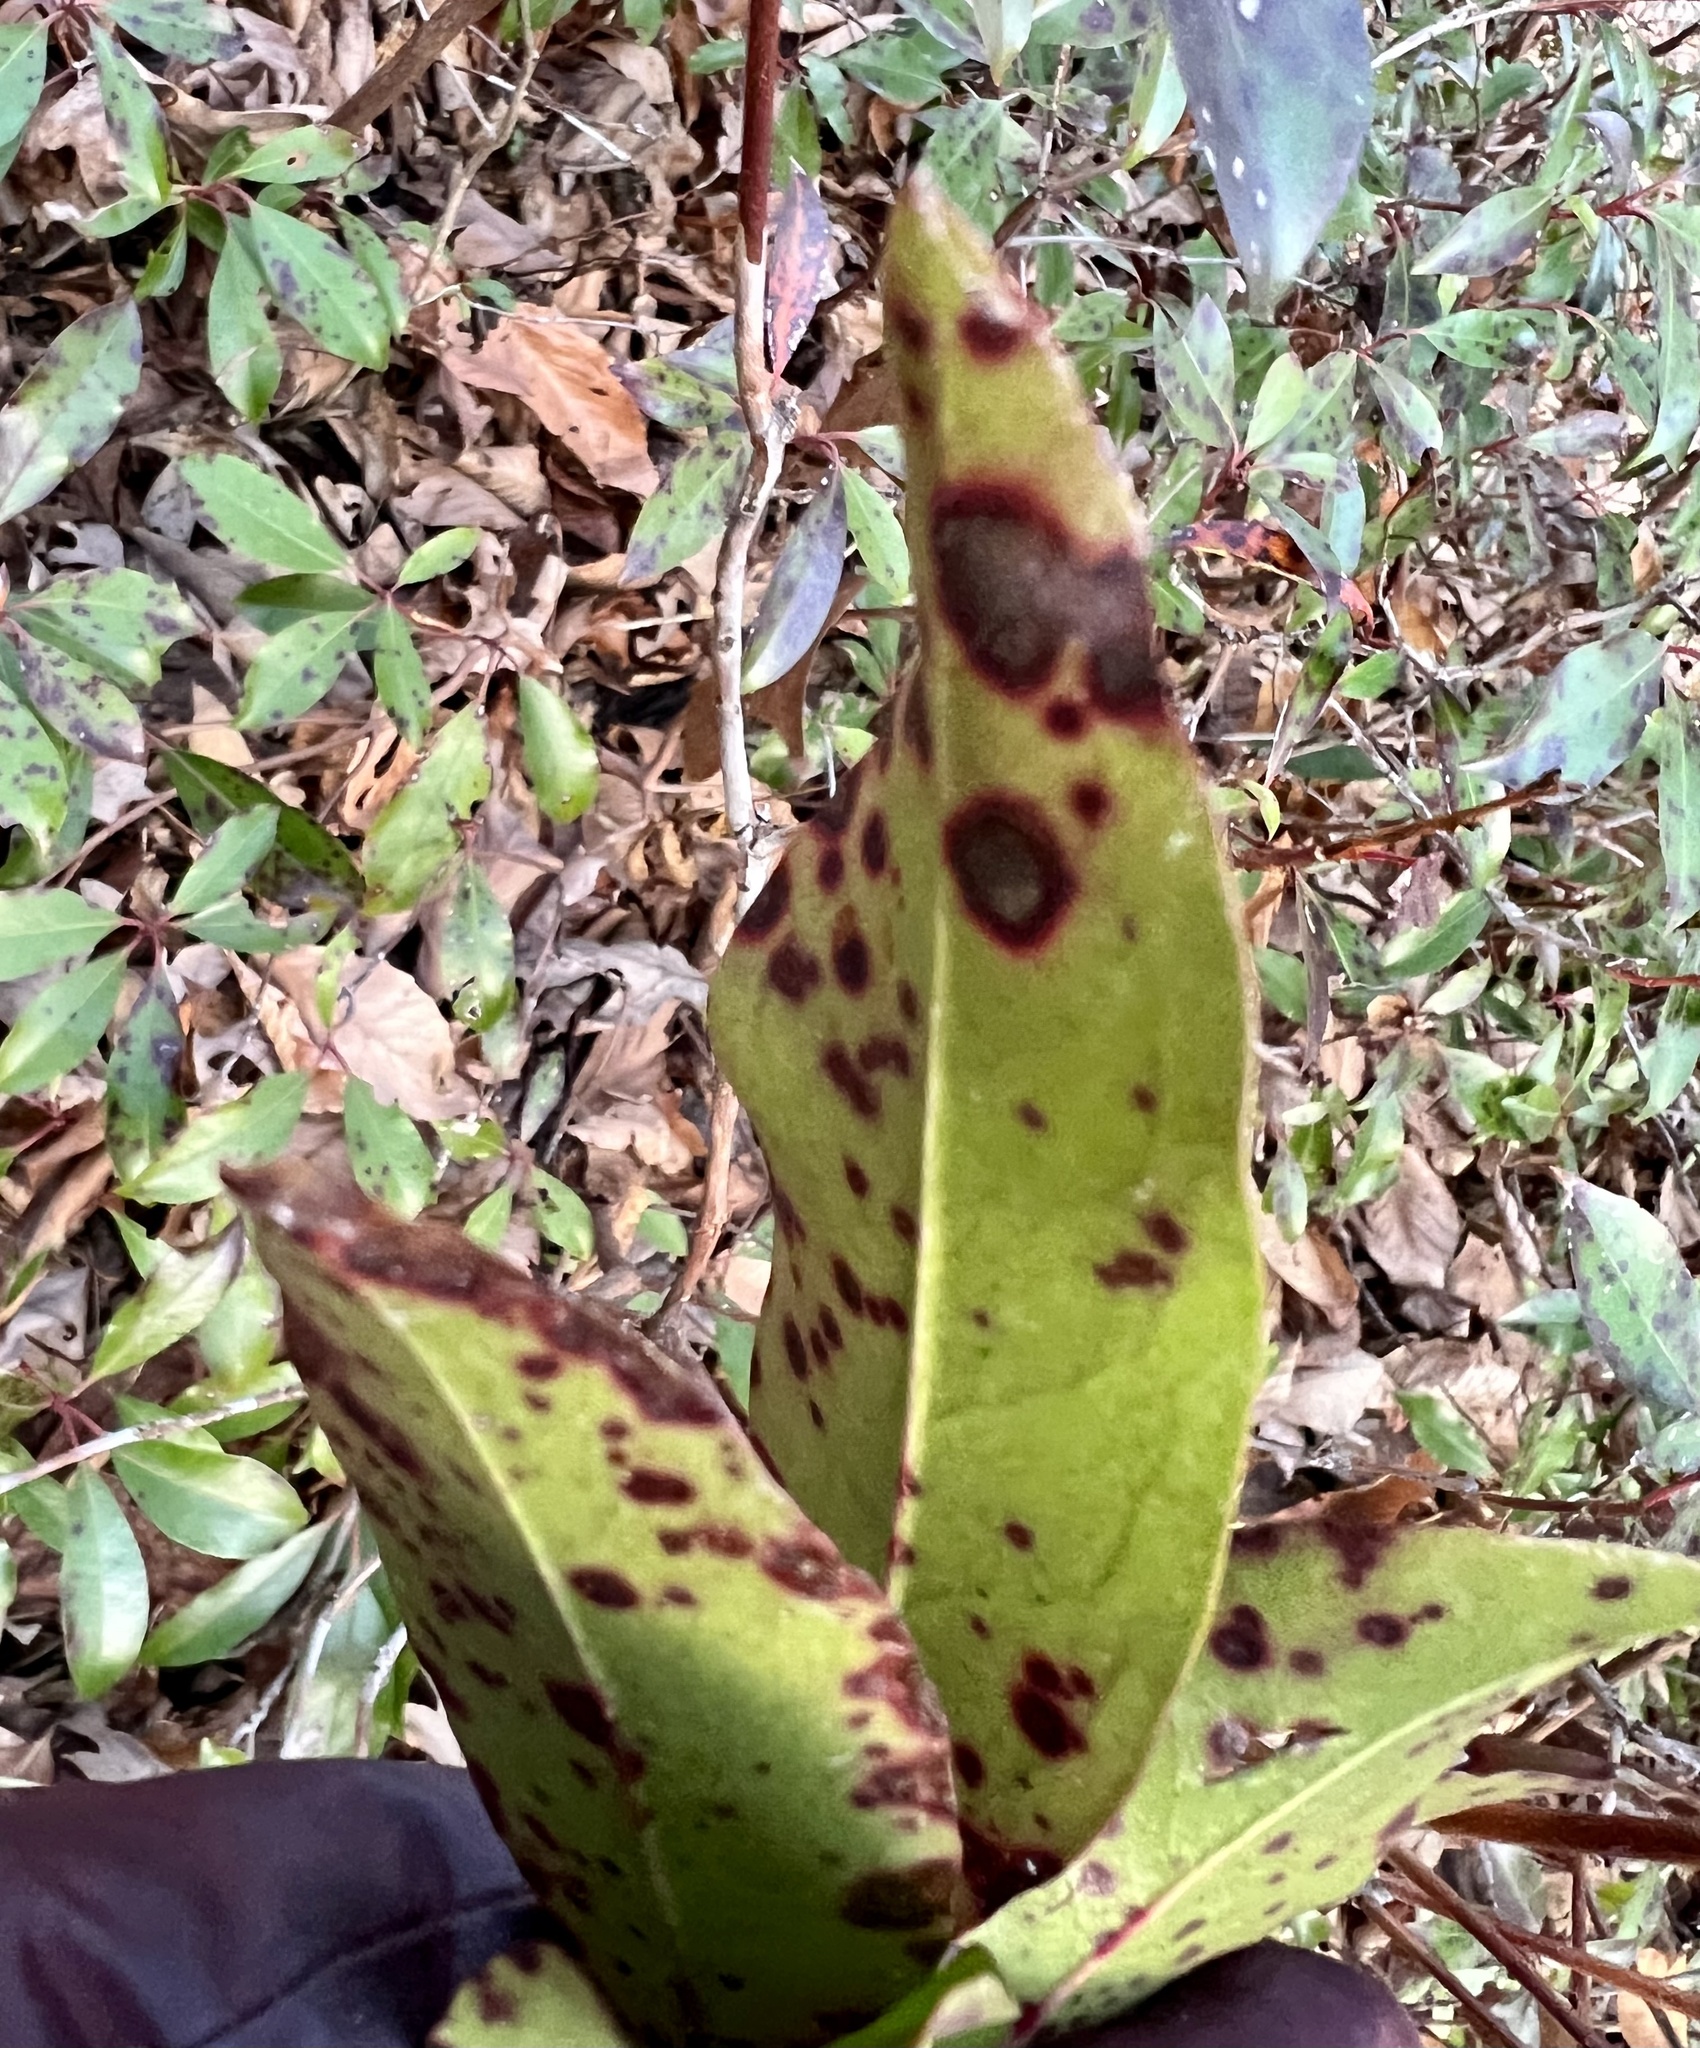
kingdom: Fungi
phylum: Ascomycota
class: Dothideomycetes
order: Mycosphaerellales
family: Mycosphaerellaceae
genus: Mycosphaerella
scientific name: Mycosphaerella colorata
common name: Mountain laurel leaf spot
